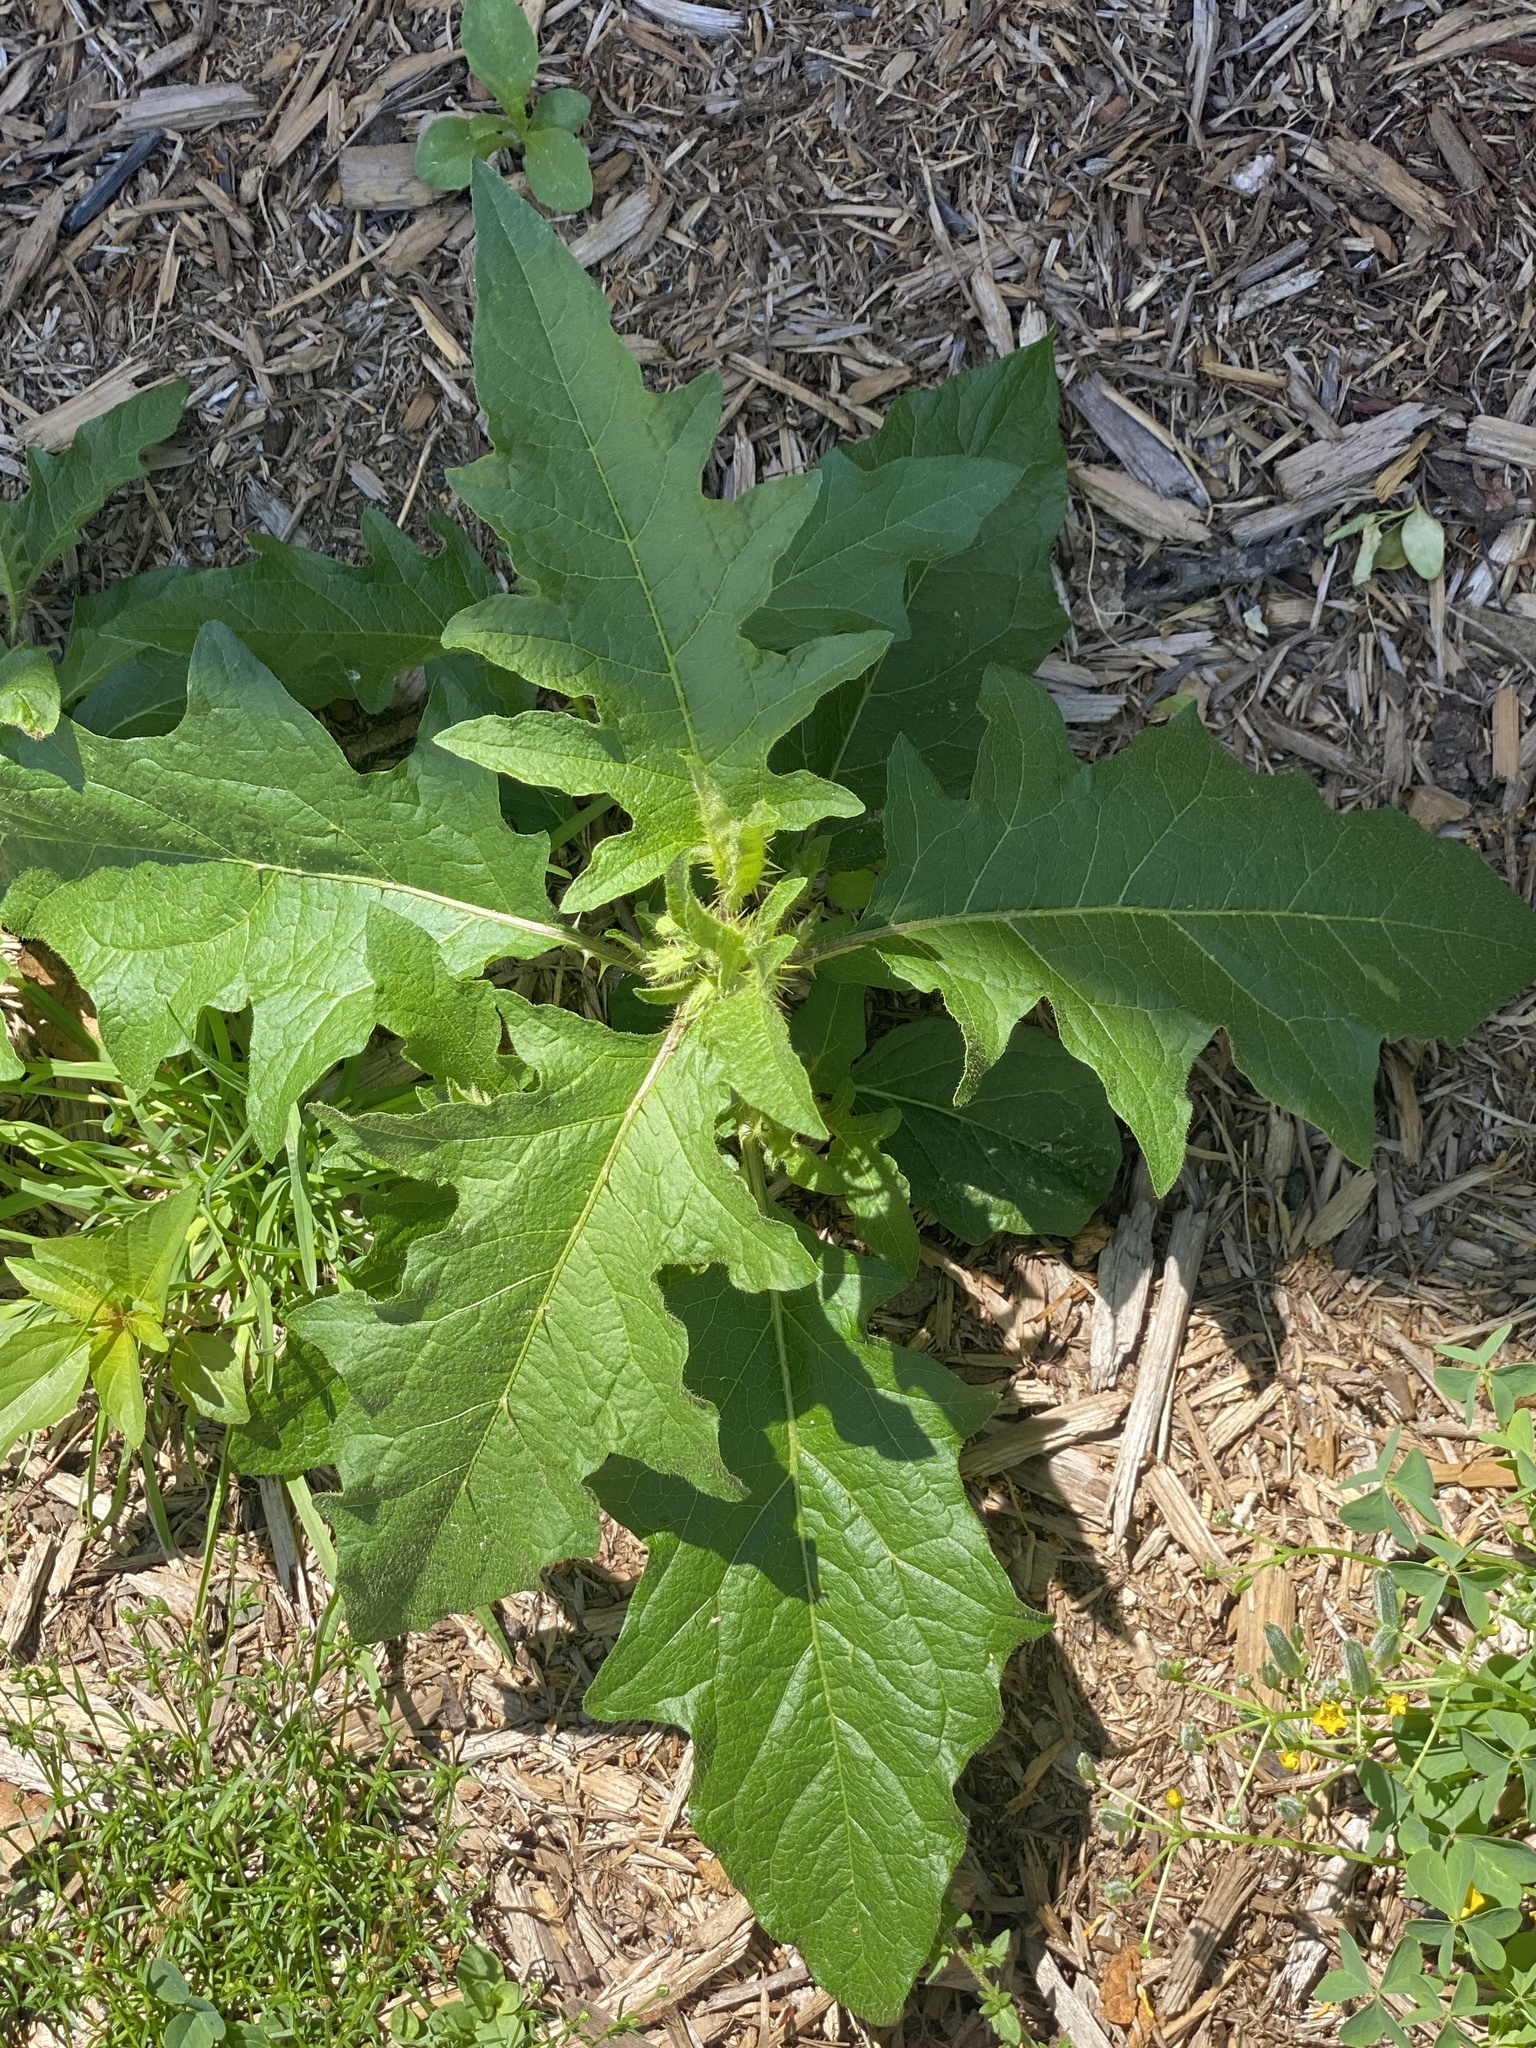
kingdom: Plantae
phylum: Tracheophyta
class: Magnoliopsida
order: Solanales
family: Solanaceae
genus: Solanum
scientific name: Solanum carolinense
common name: Horse-nettle
